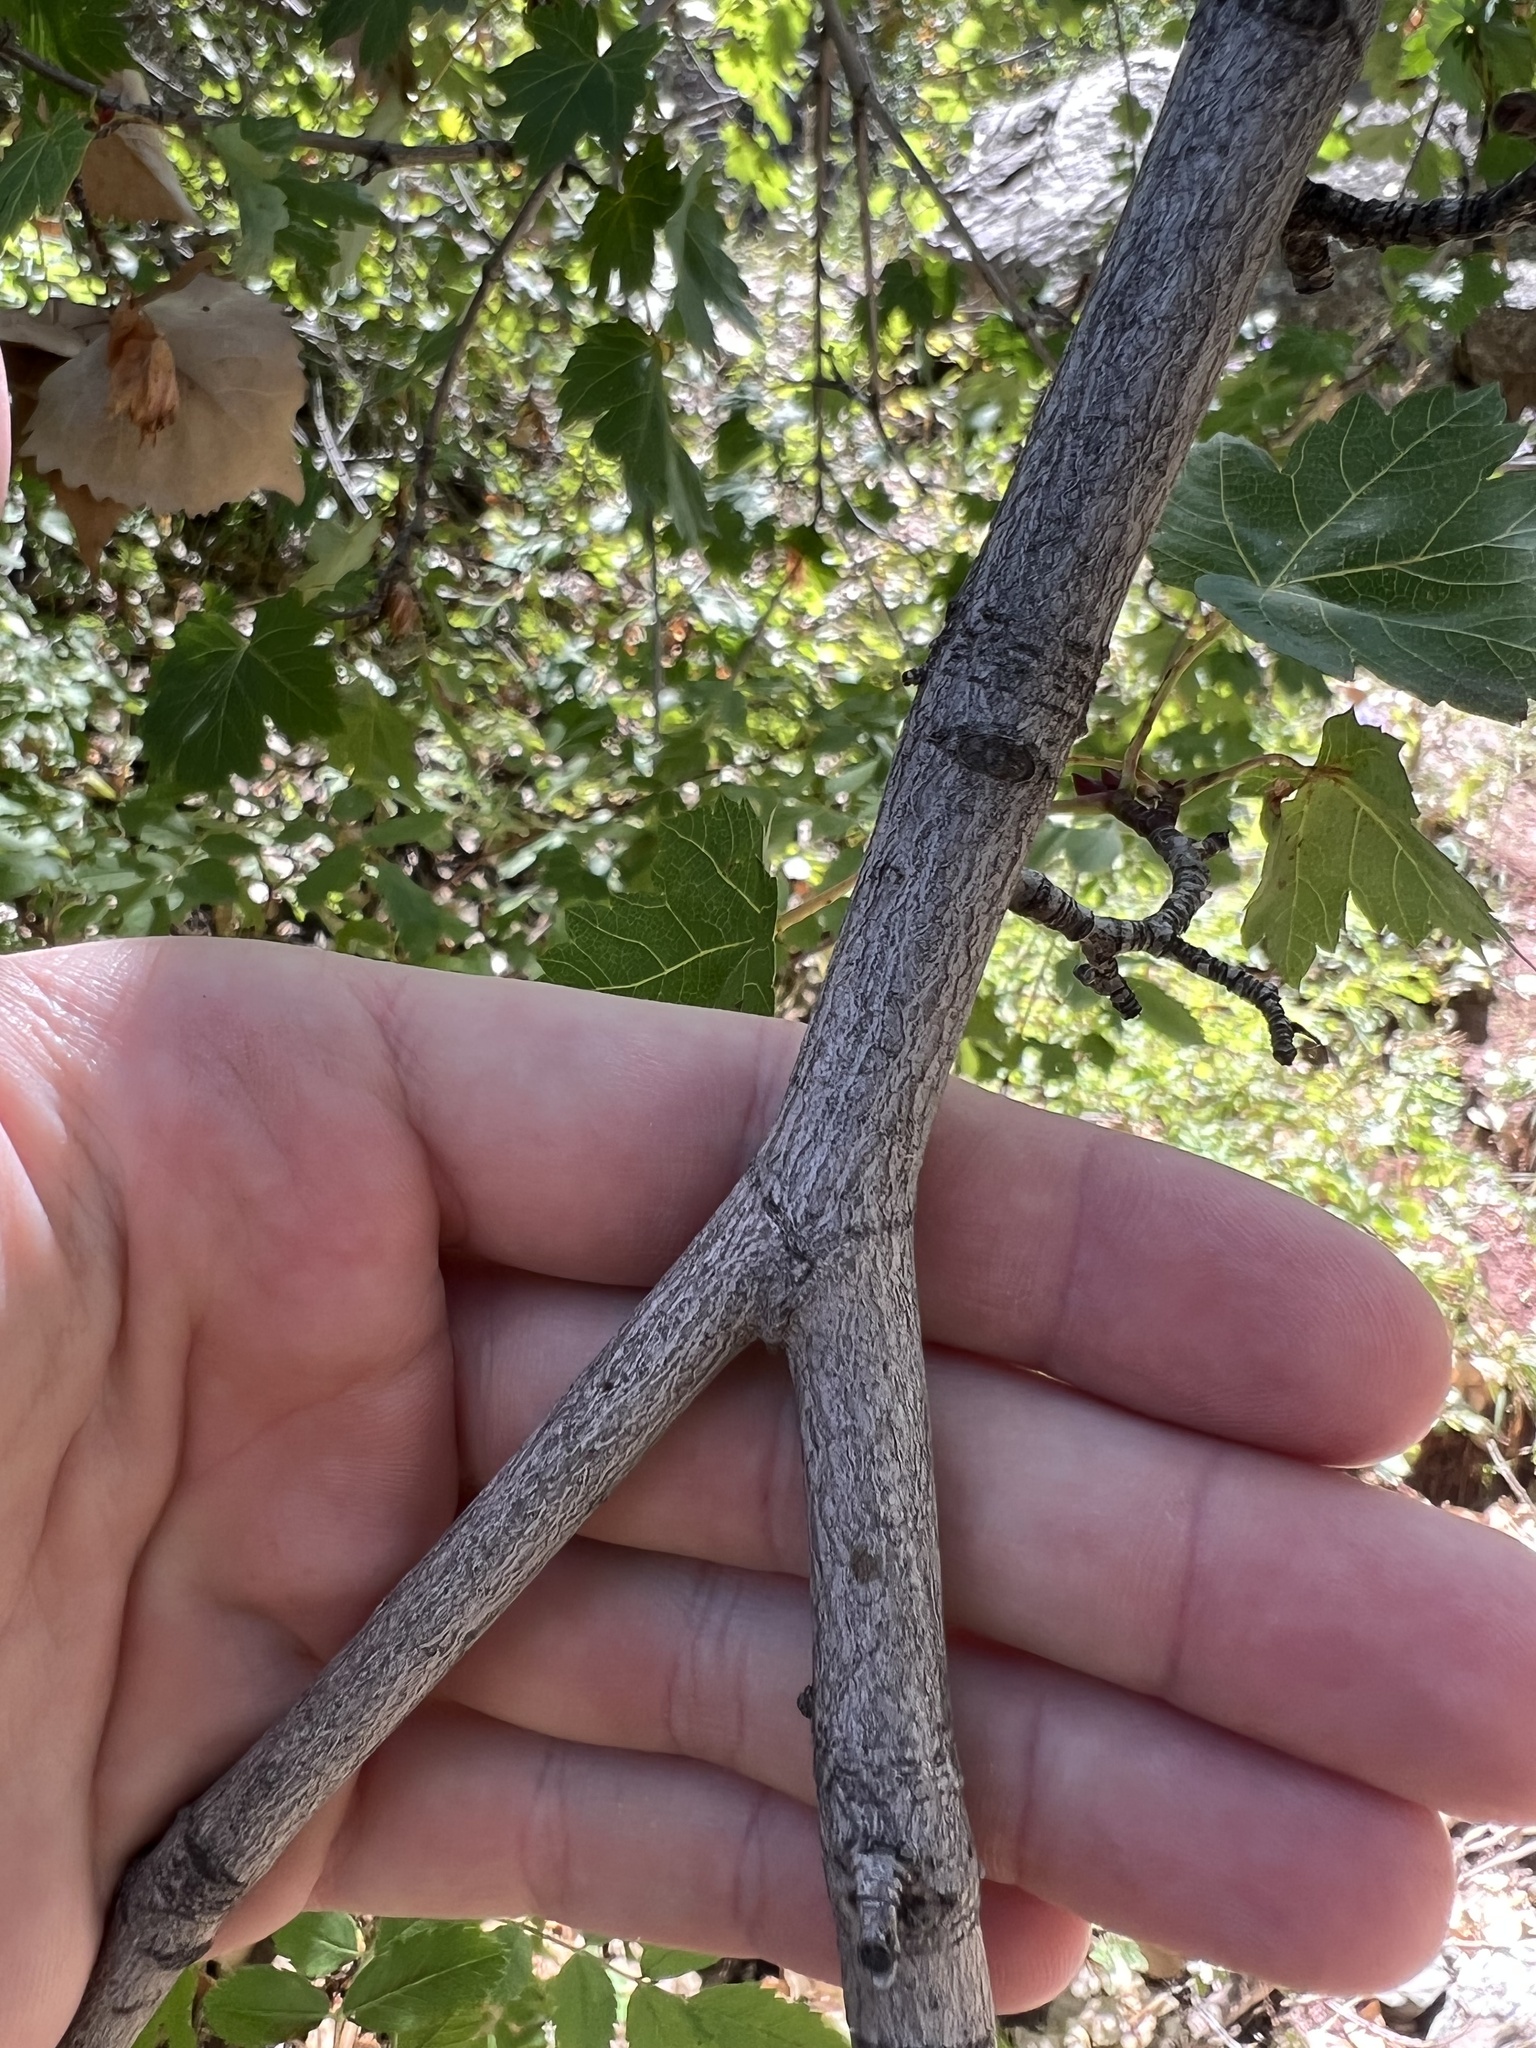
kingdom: Plantae
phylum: Tracheophyta
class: Magnoliopsida
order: Sapindales
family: Sapindaceae
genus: Acer
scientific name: Acer glabrum
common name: Rocky mountain maple
